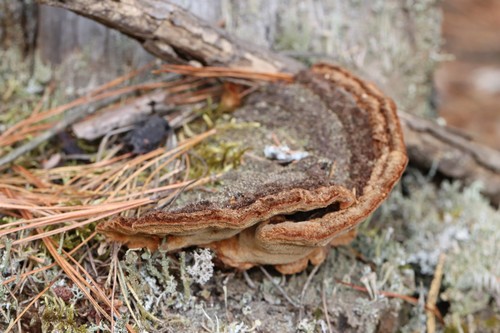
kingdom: Fungi
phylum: Basidiomycota
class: Agaricomycetes
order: Gloeophyllales
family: Gloeophyllaceae
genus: Gloeophyllum
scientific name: Gloeophyllum protractum
